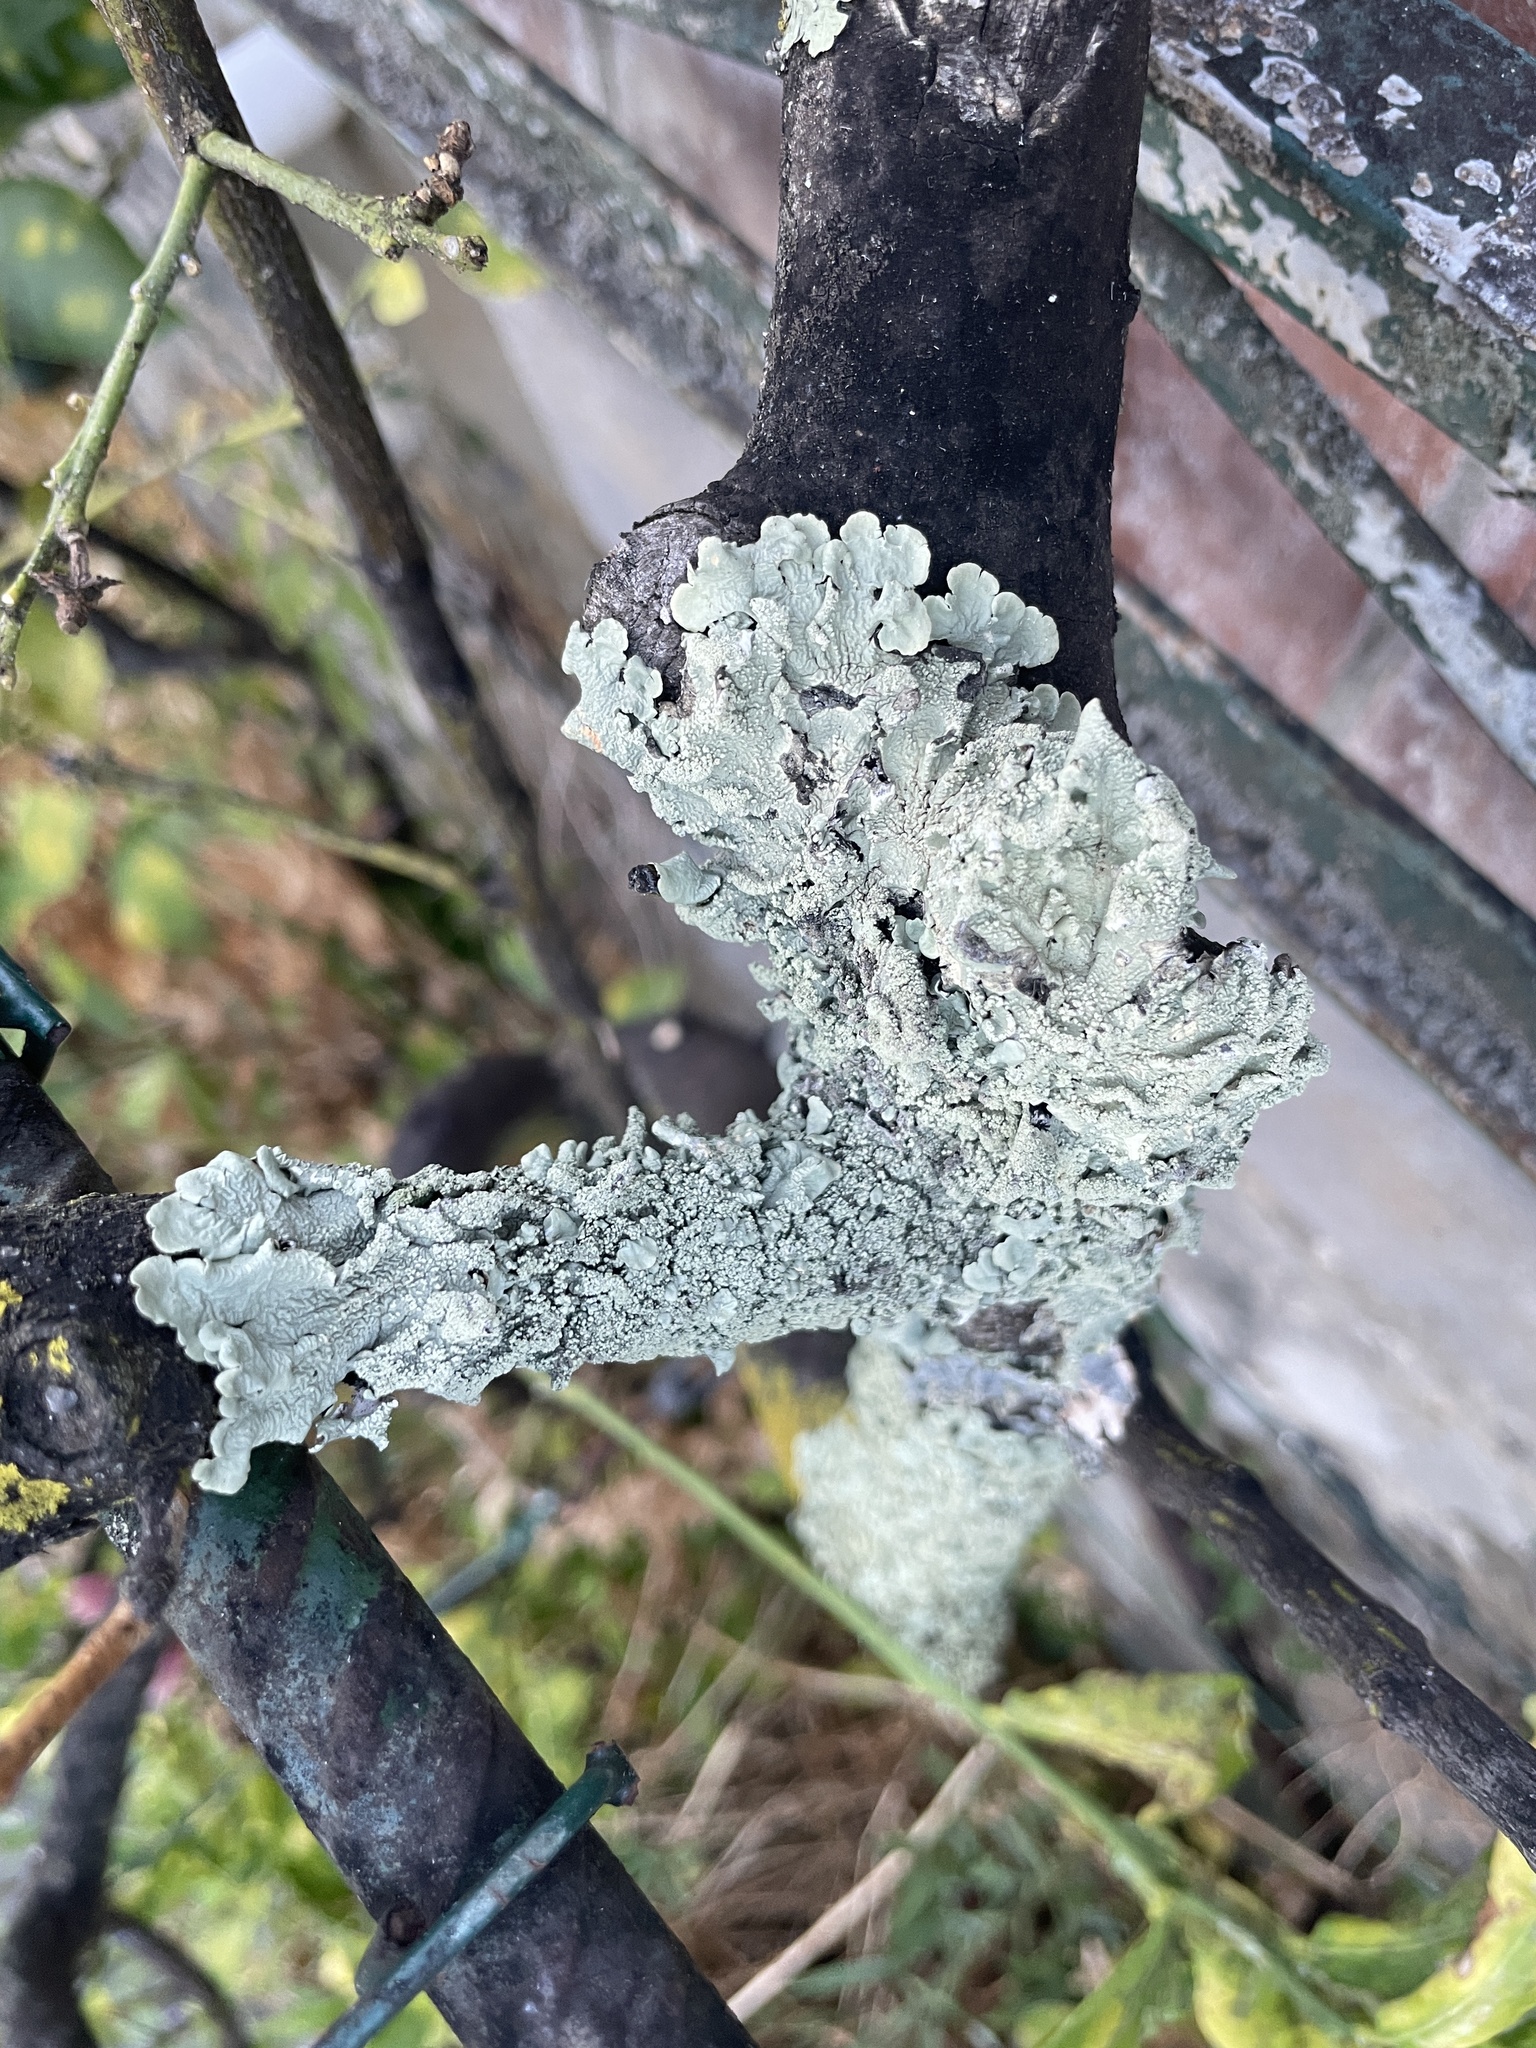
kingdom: Fungi
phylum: Ascomycota
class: Lecanoromycetes
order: Lecanorales
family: Parmeliaceae
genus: Flavoparmelia
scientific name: Flavoparmelia caperata
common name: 40-mile per hour lichen
